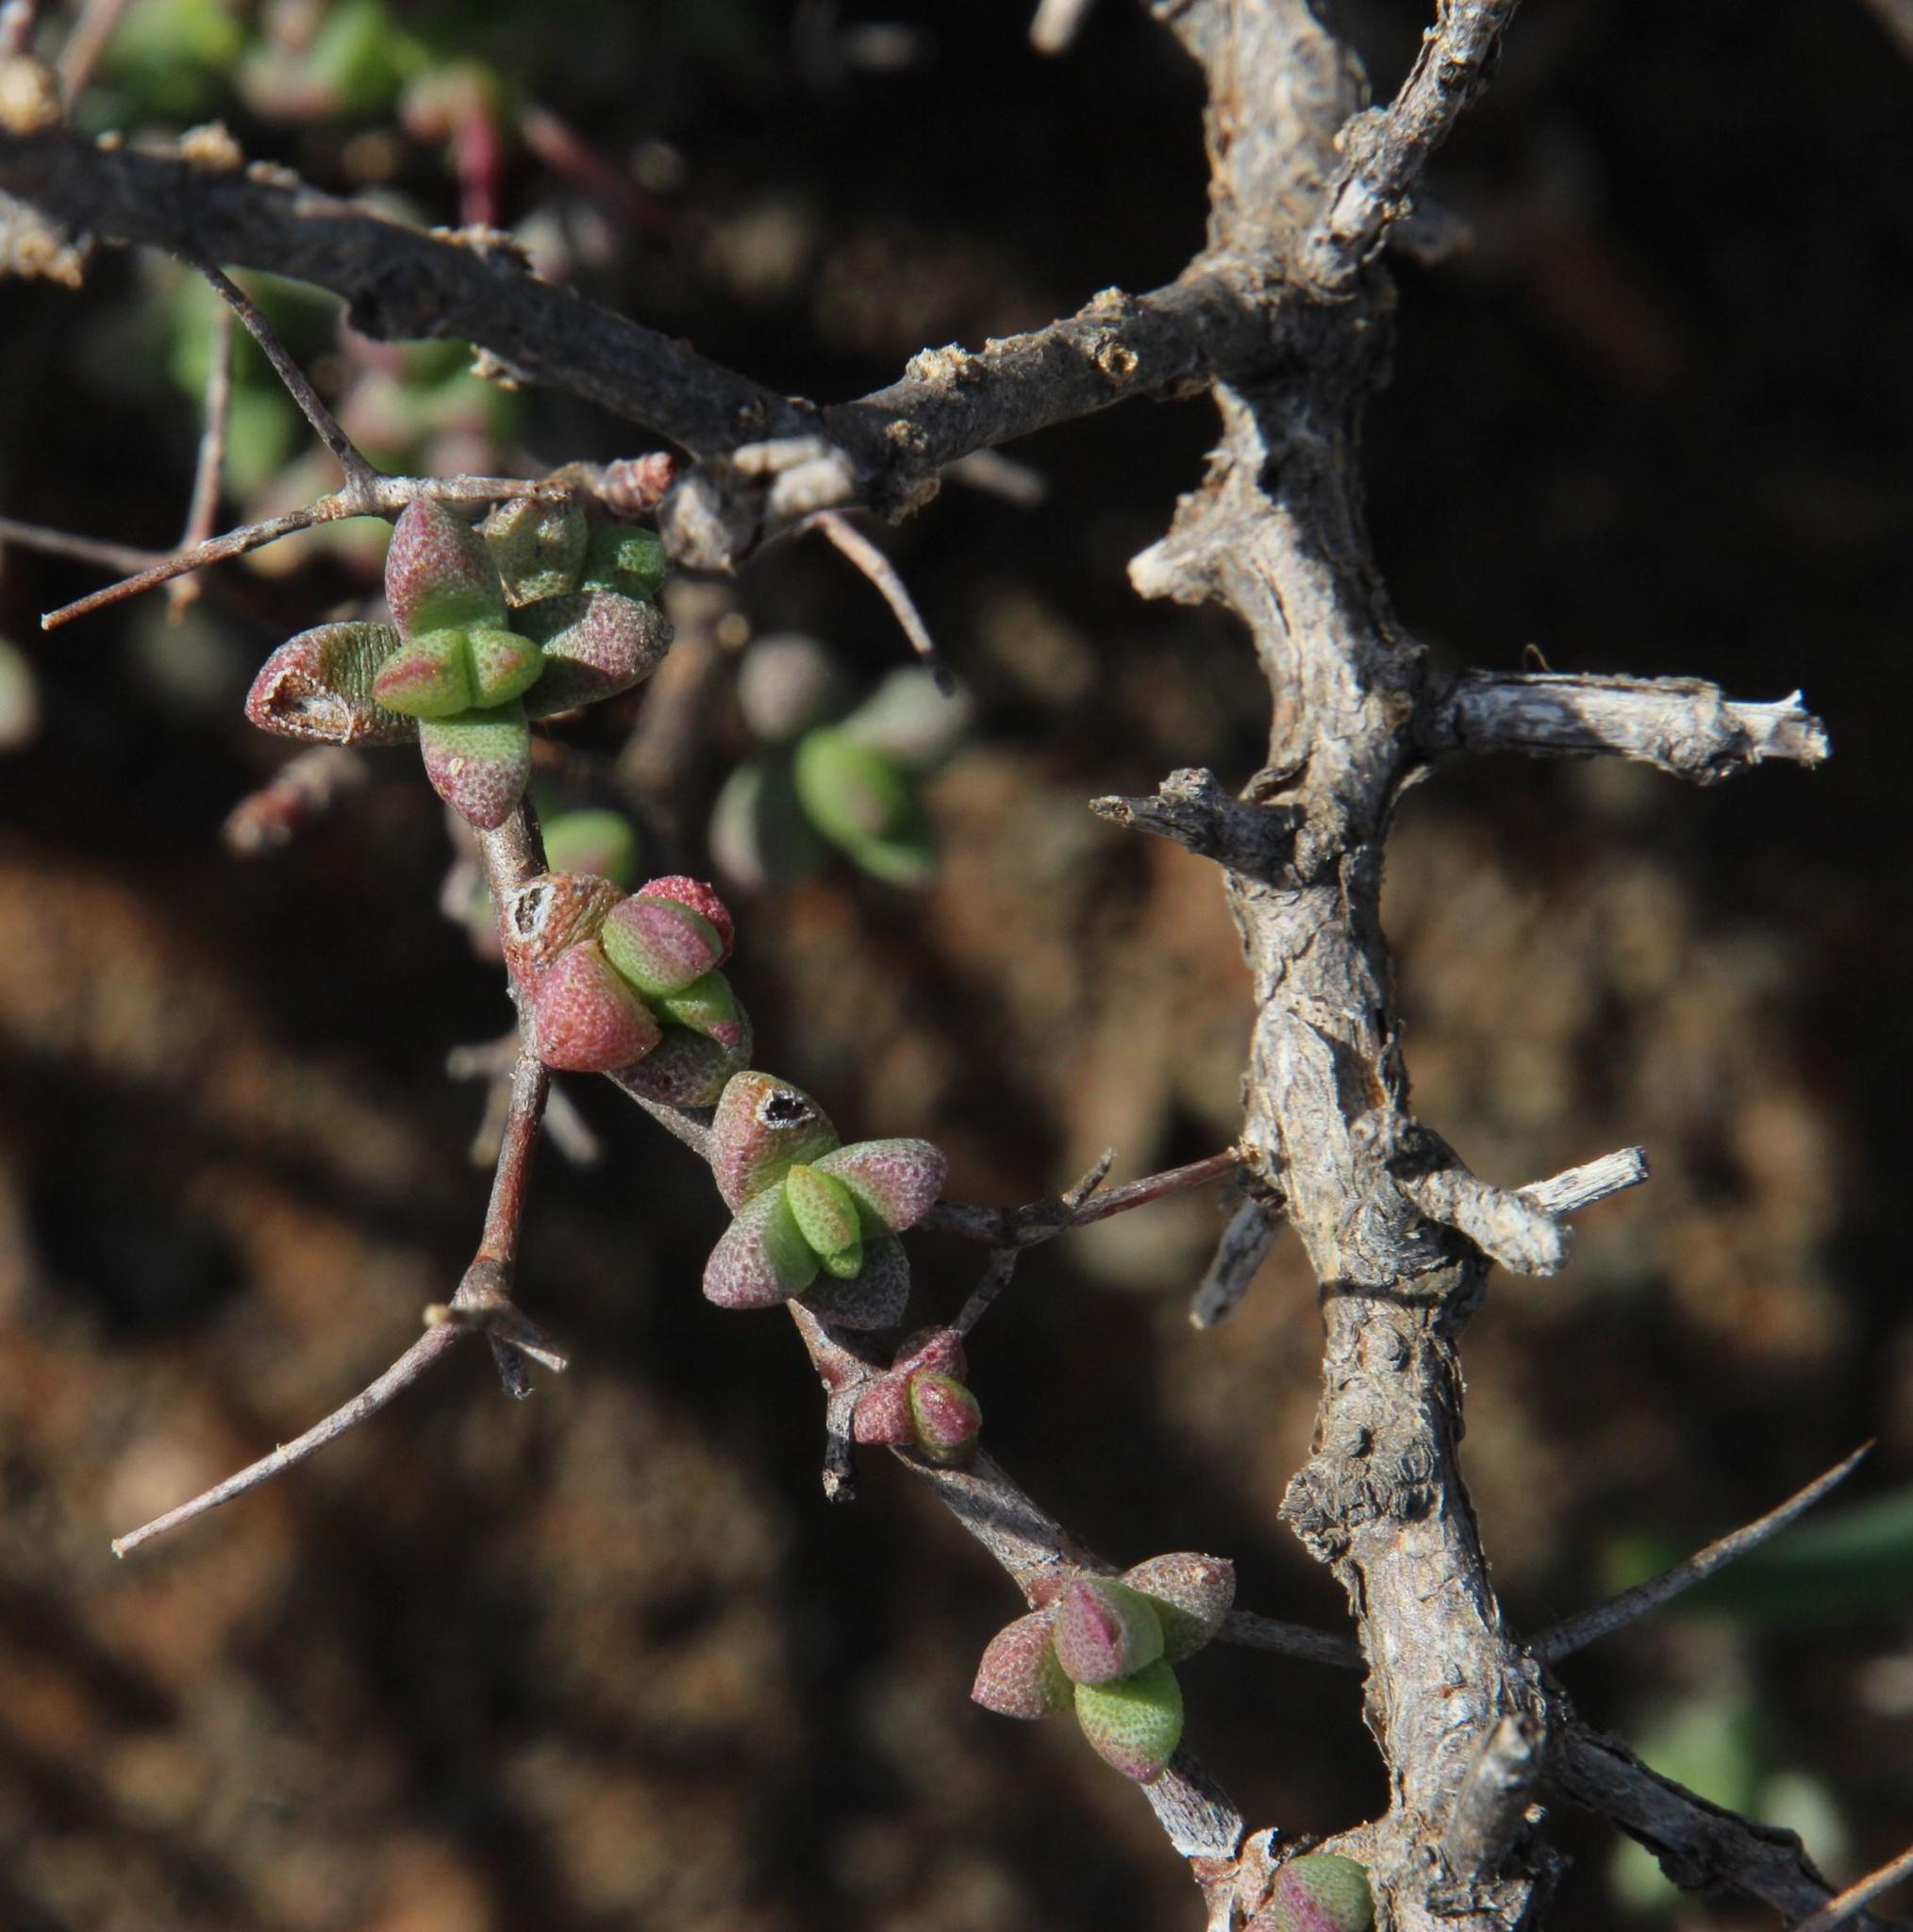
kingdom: Plantae
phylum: Tracheophyta
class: Magnoliopsida
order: Caryophyllales
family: Aizoaceae
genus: Ruschia
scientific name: Ruschia cradockensis
